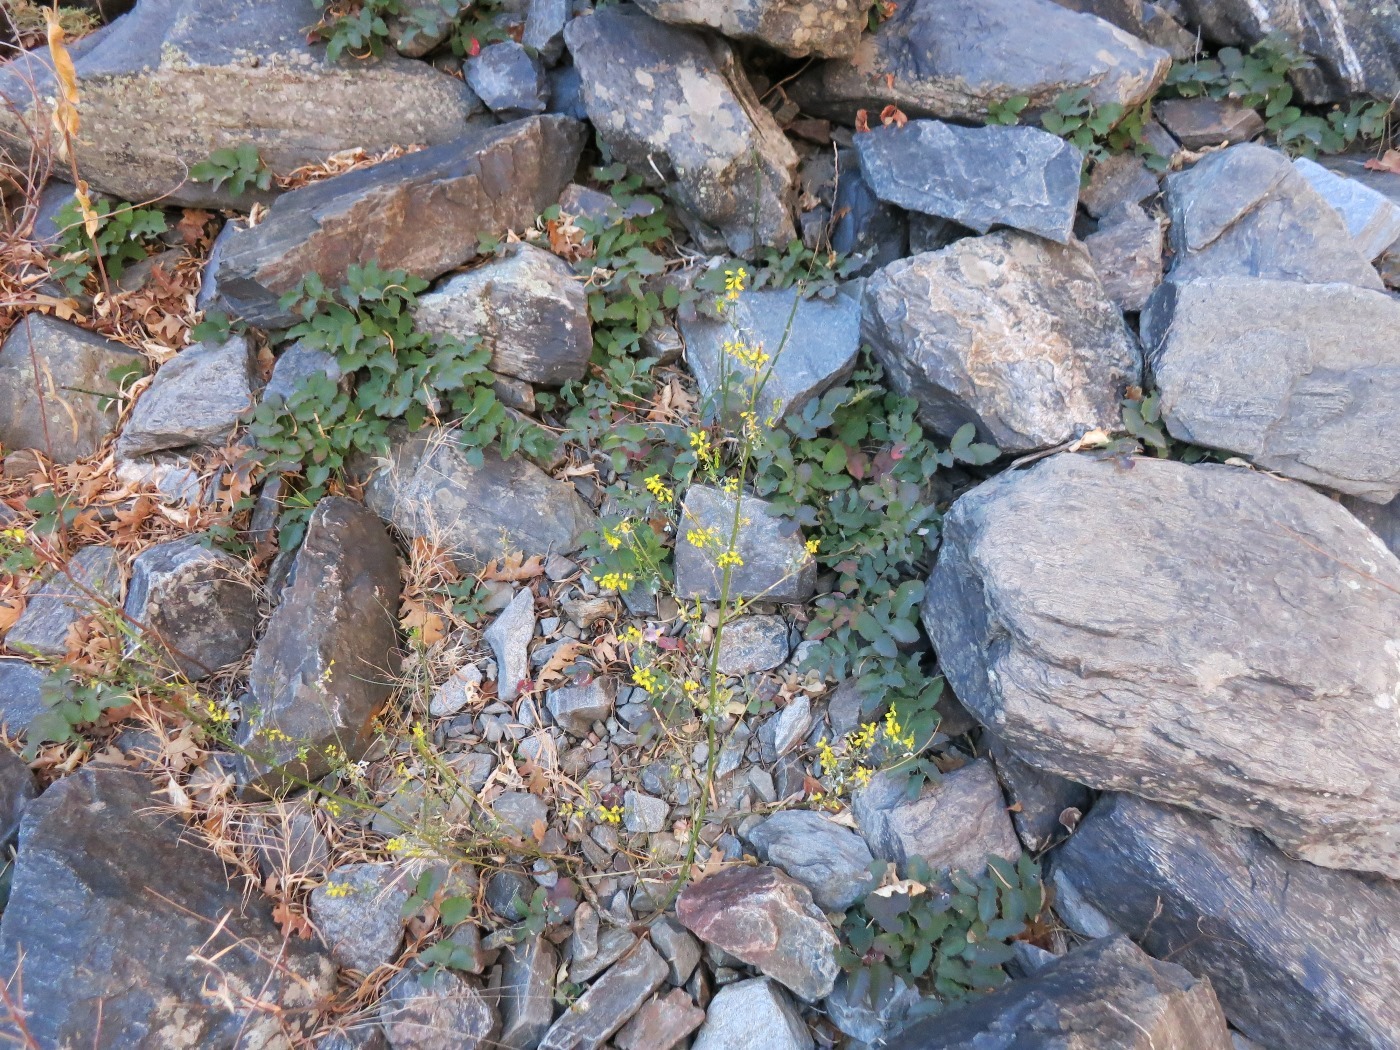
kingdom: Plantae
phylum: Tracheophyta
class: Magnoliopsida
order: Fabales
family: Fabaceae
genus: Melilotus
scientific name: Melilotus officinalis
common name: Sweetclover
